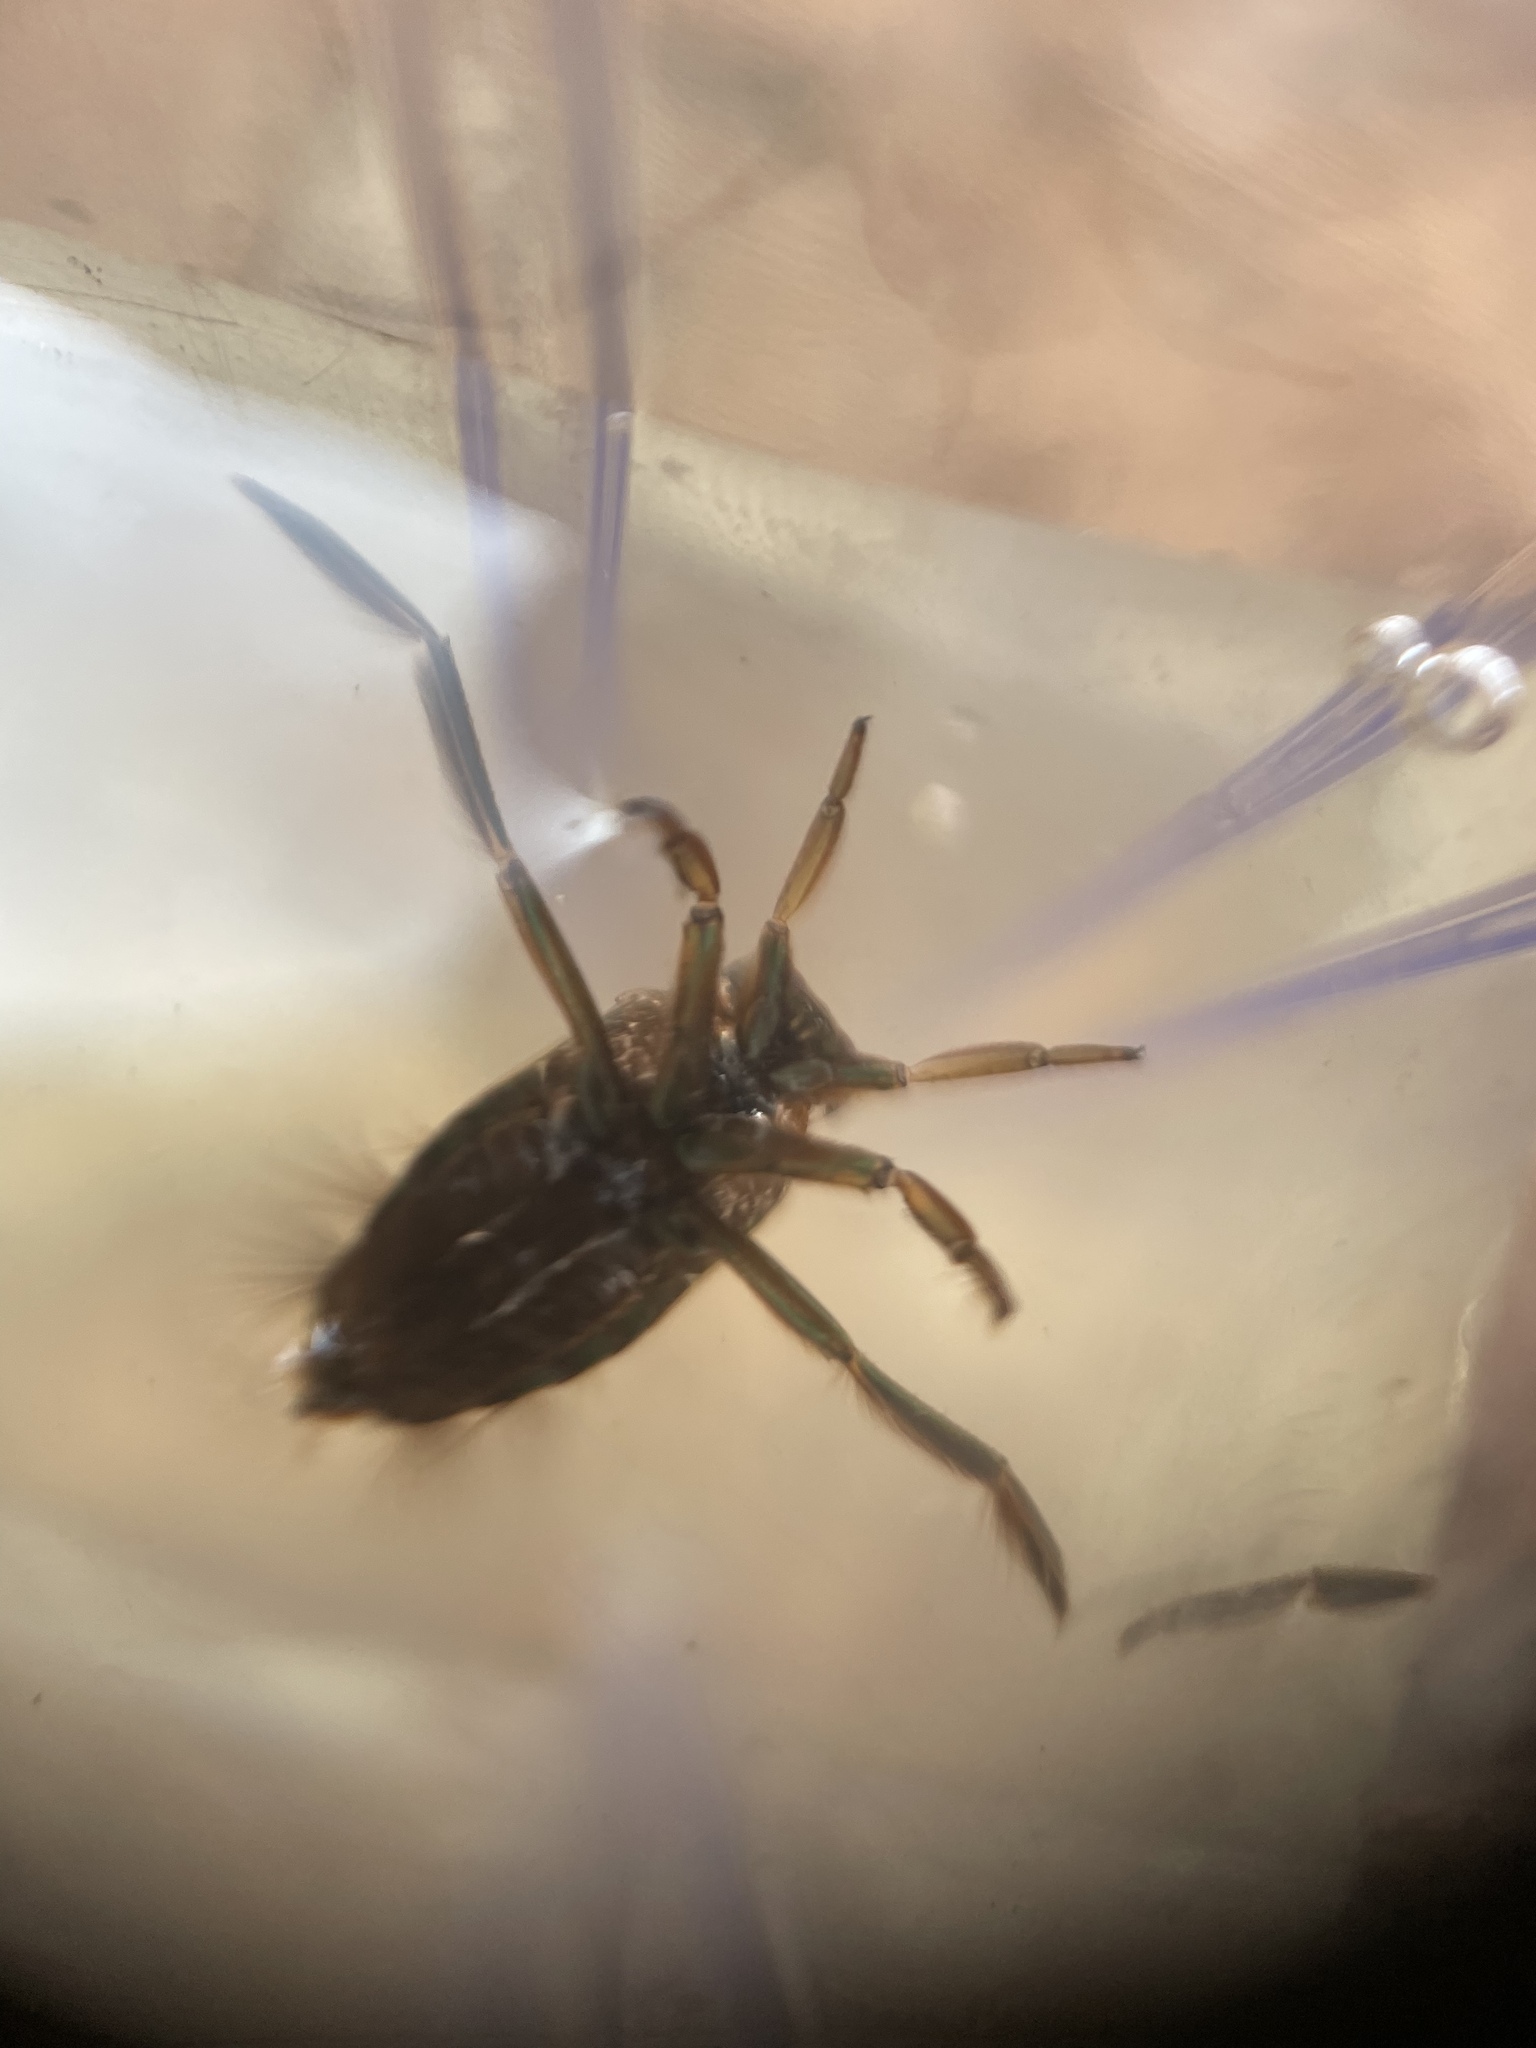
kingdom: Animalia
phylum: Arthropoda
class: Insecta
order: Hemiptera
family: Notonectidae
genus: Notonecta
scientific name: Notonecta
